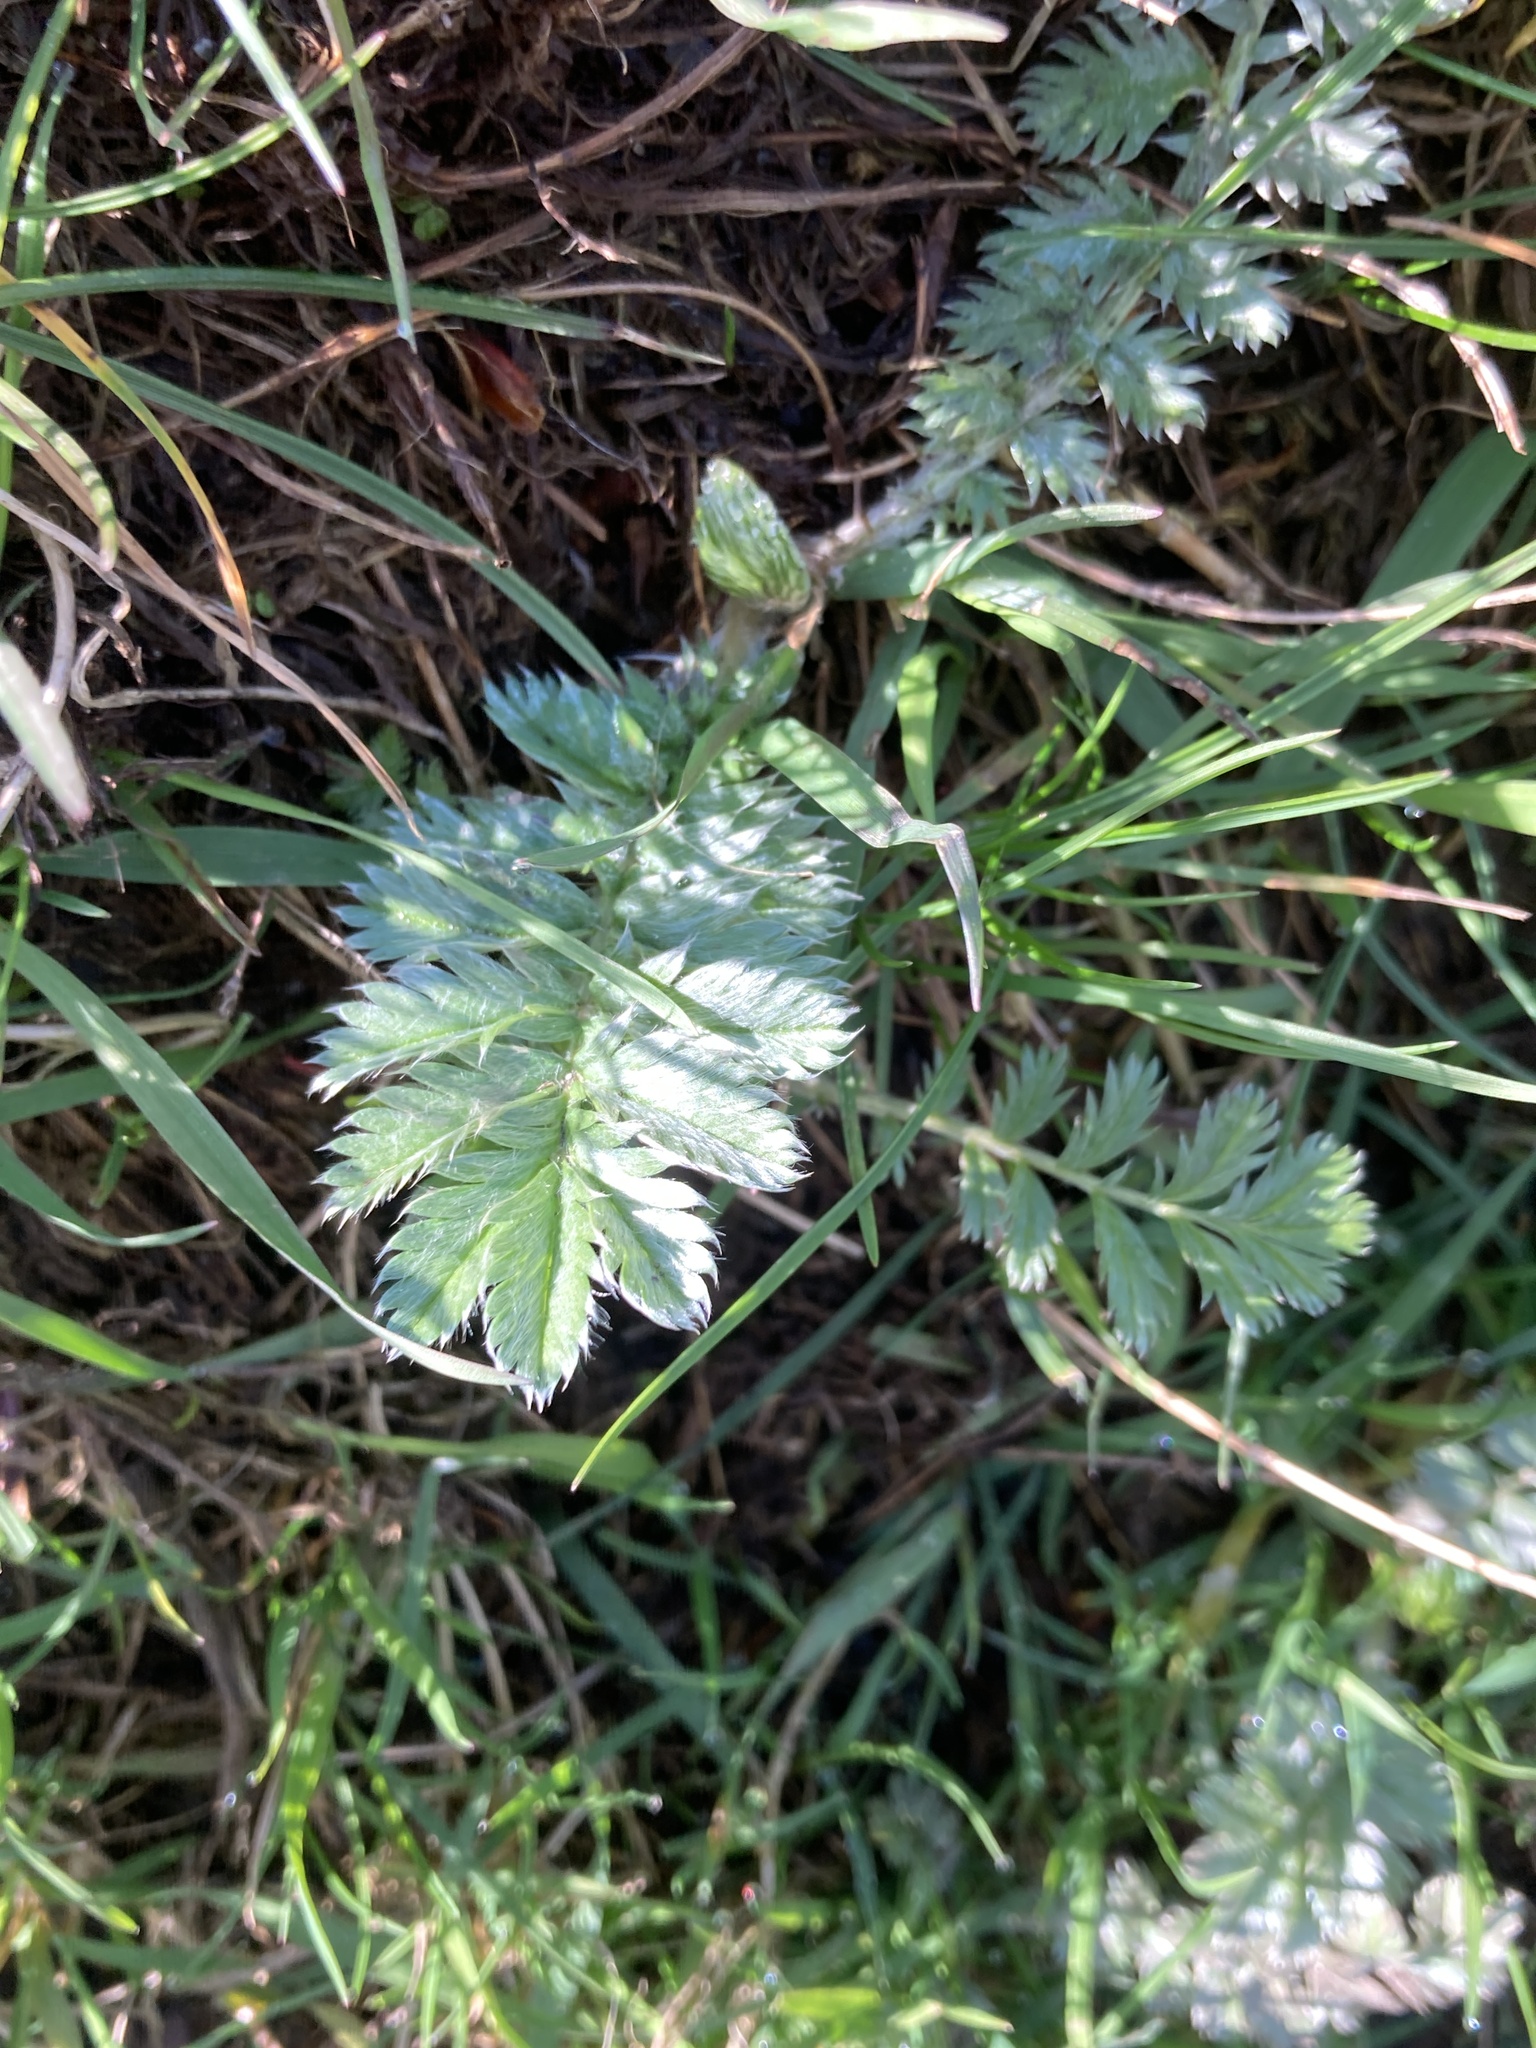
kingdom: Plantae
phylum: Tracheophyta
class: Magnoliopsida
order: Rosales
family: Rosaceae
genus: Argentina
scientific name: Argentina anserina
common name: Common silverweed
